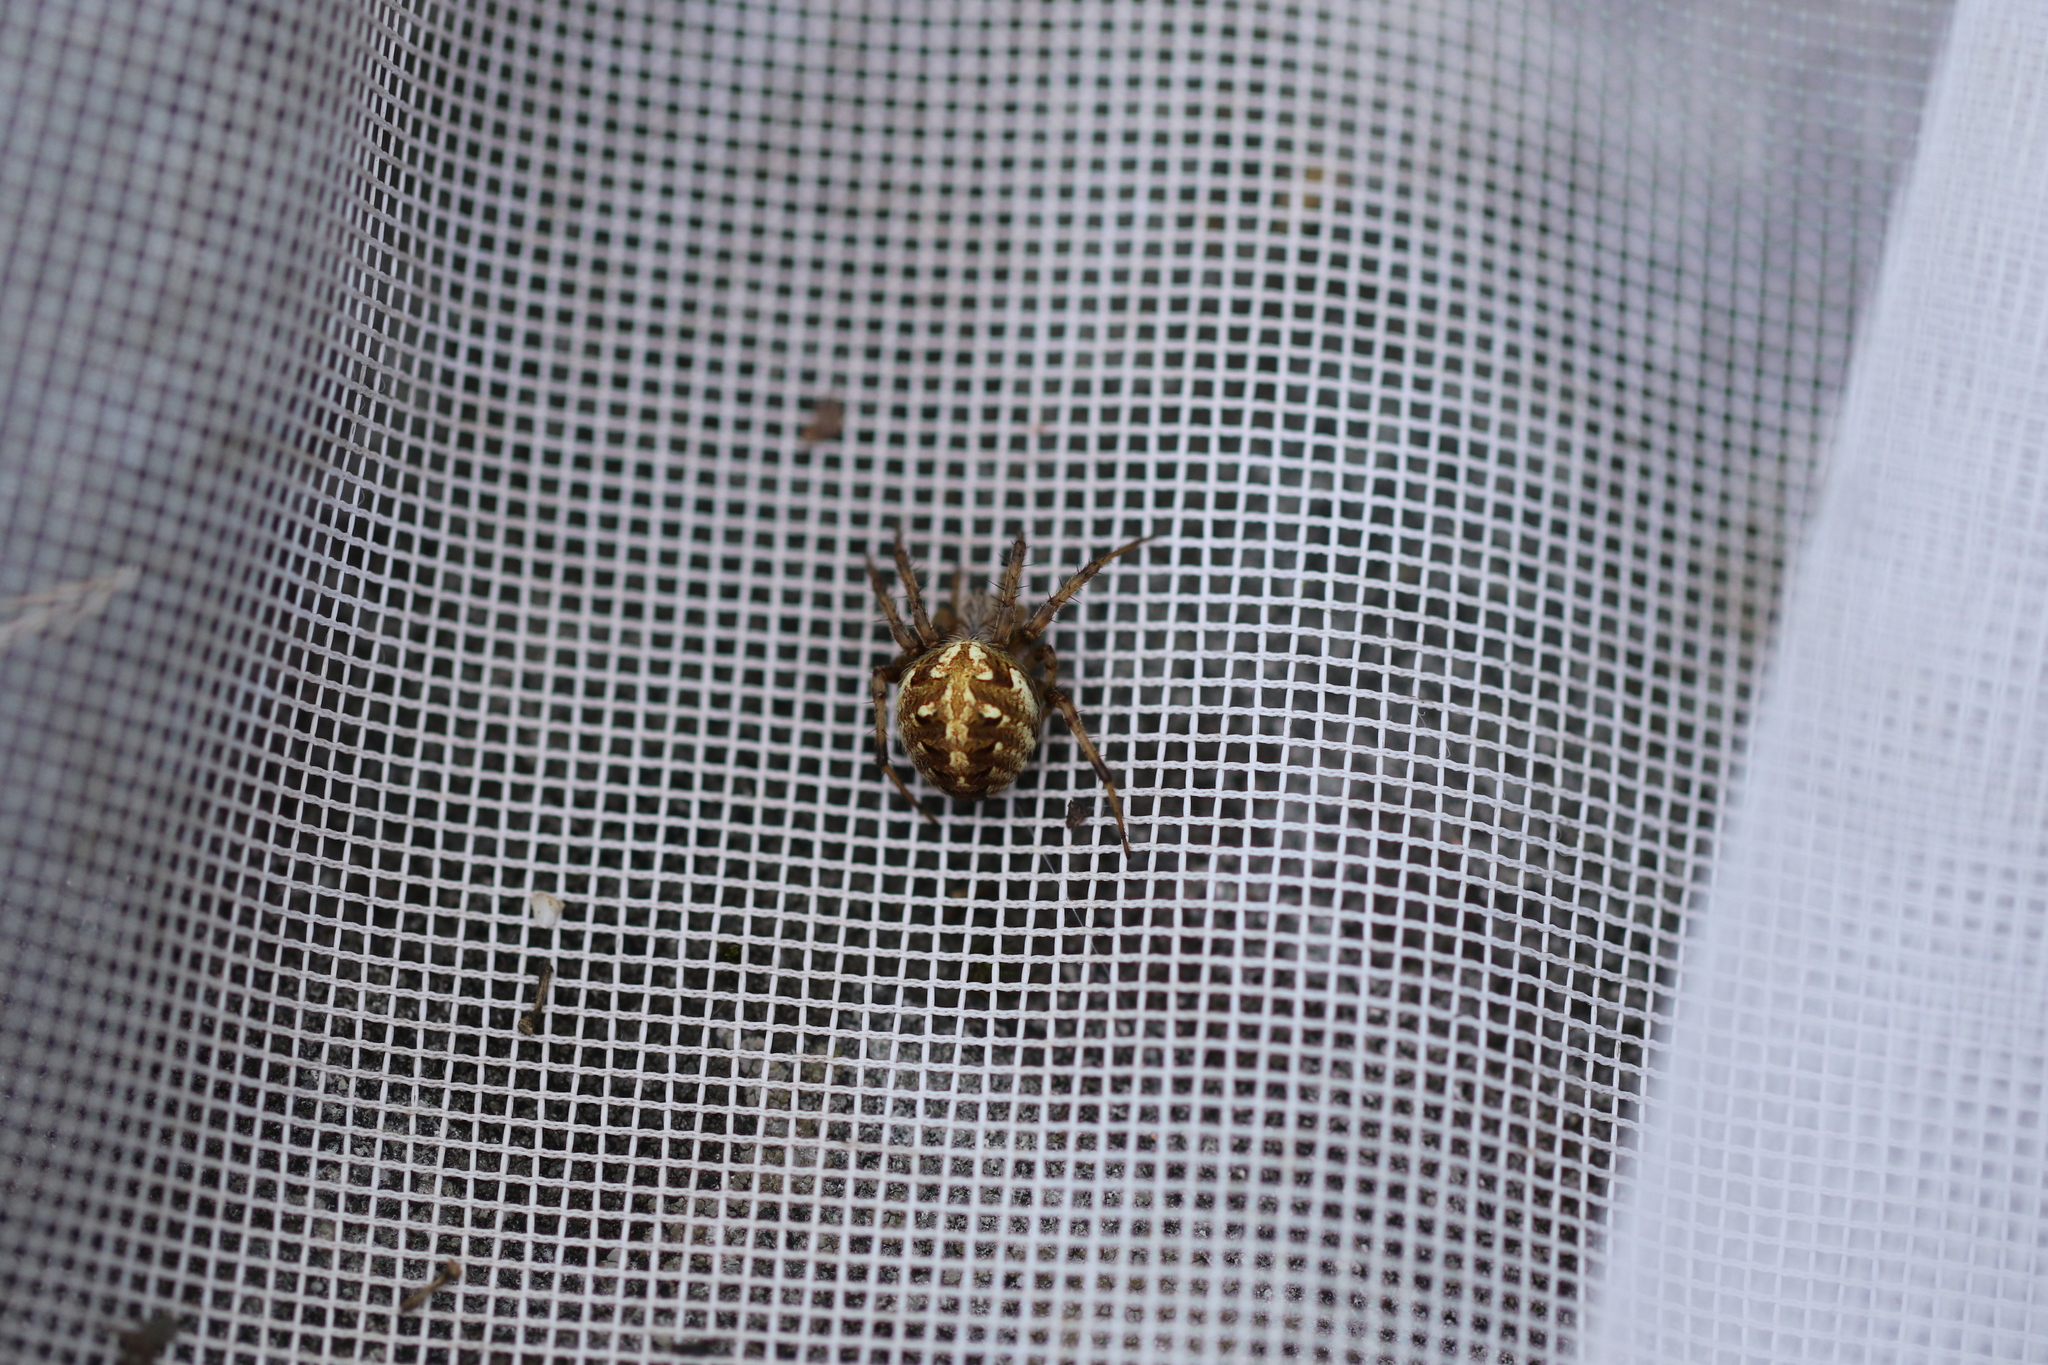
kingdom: Animalia
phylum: Arthropoda
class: Arachnida
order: Araneae
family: Araneidae
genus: Neoscona
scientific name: Neoscona arabesca
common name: Orb weavers
